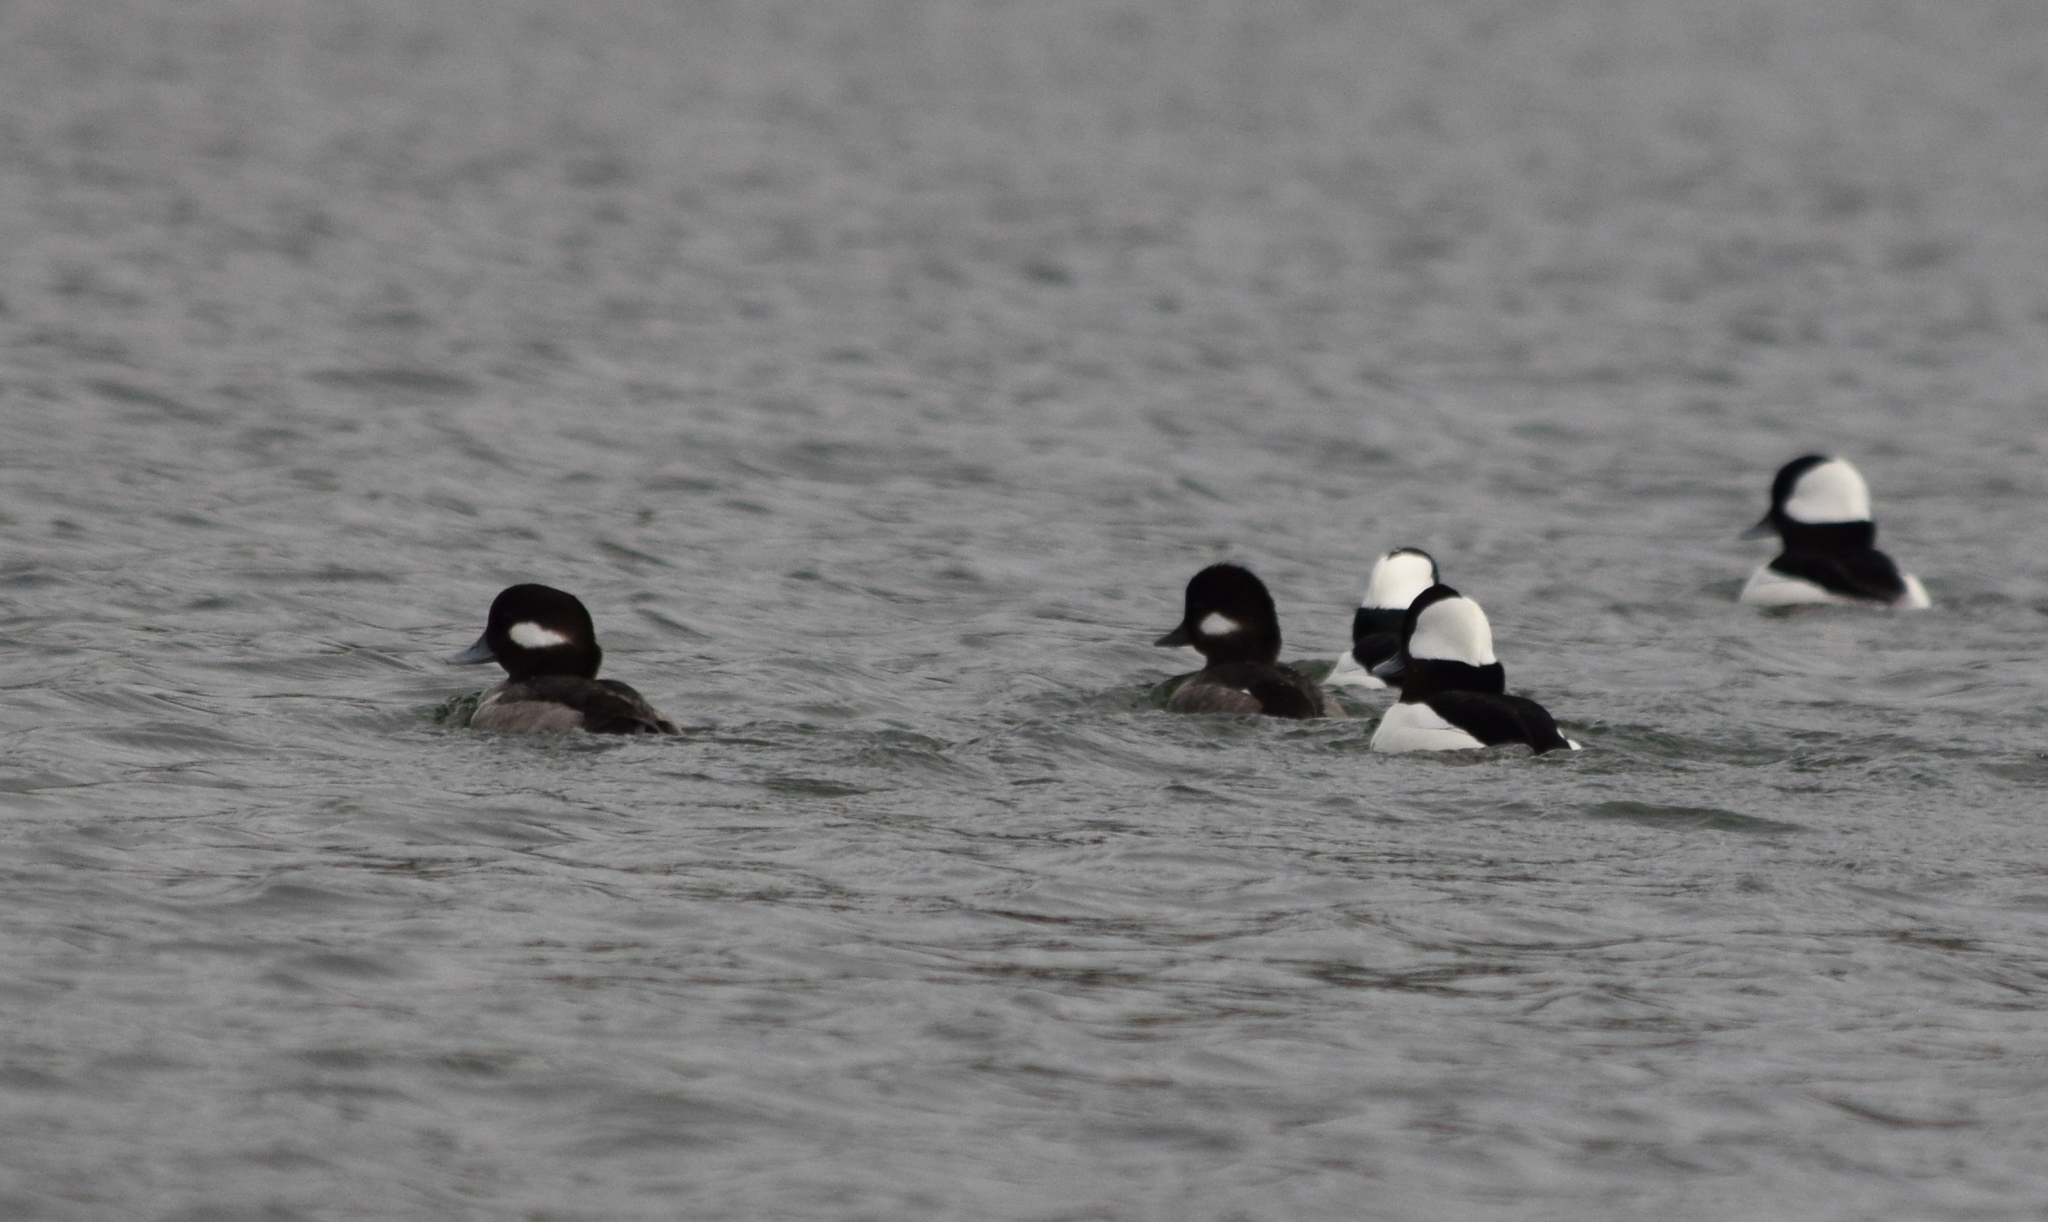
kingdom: Animalia
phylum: Chordata
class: Aves
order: Anseriformes
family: Anatidae
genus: Bucephala
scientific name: Bucephala albeola
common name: Bufflehead
